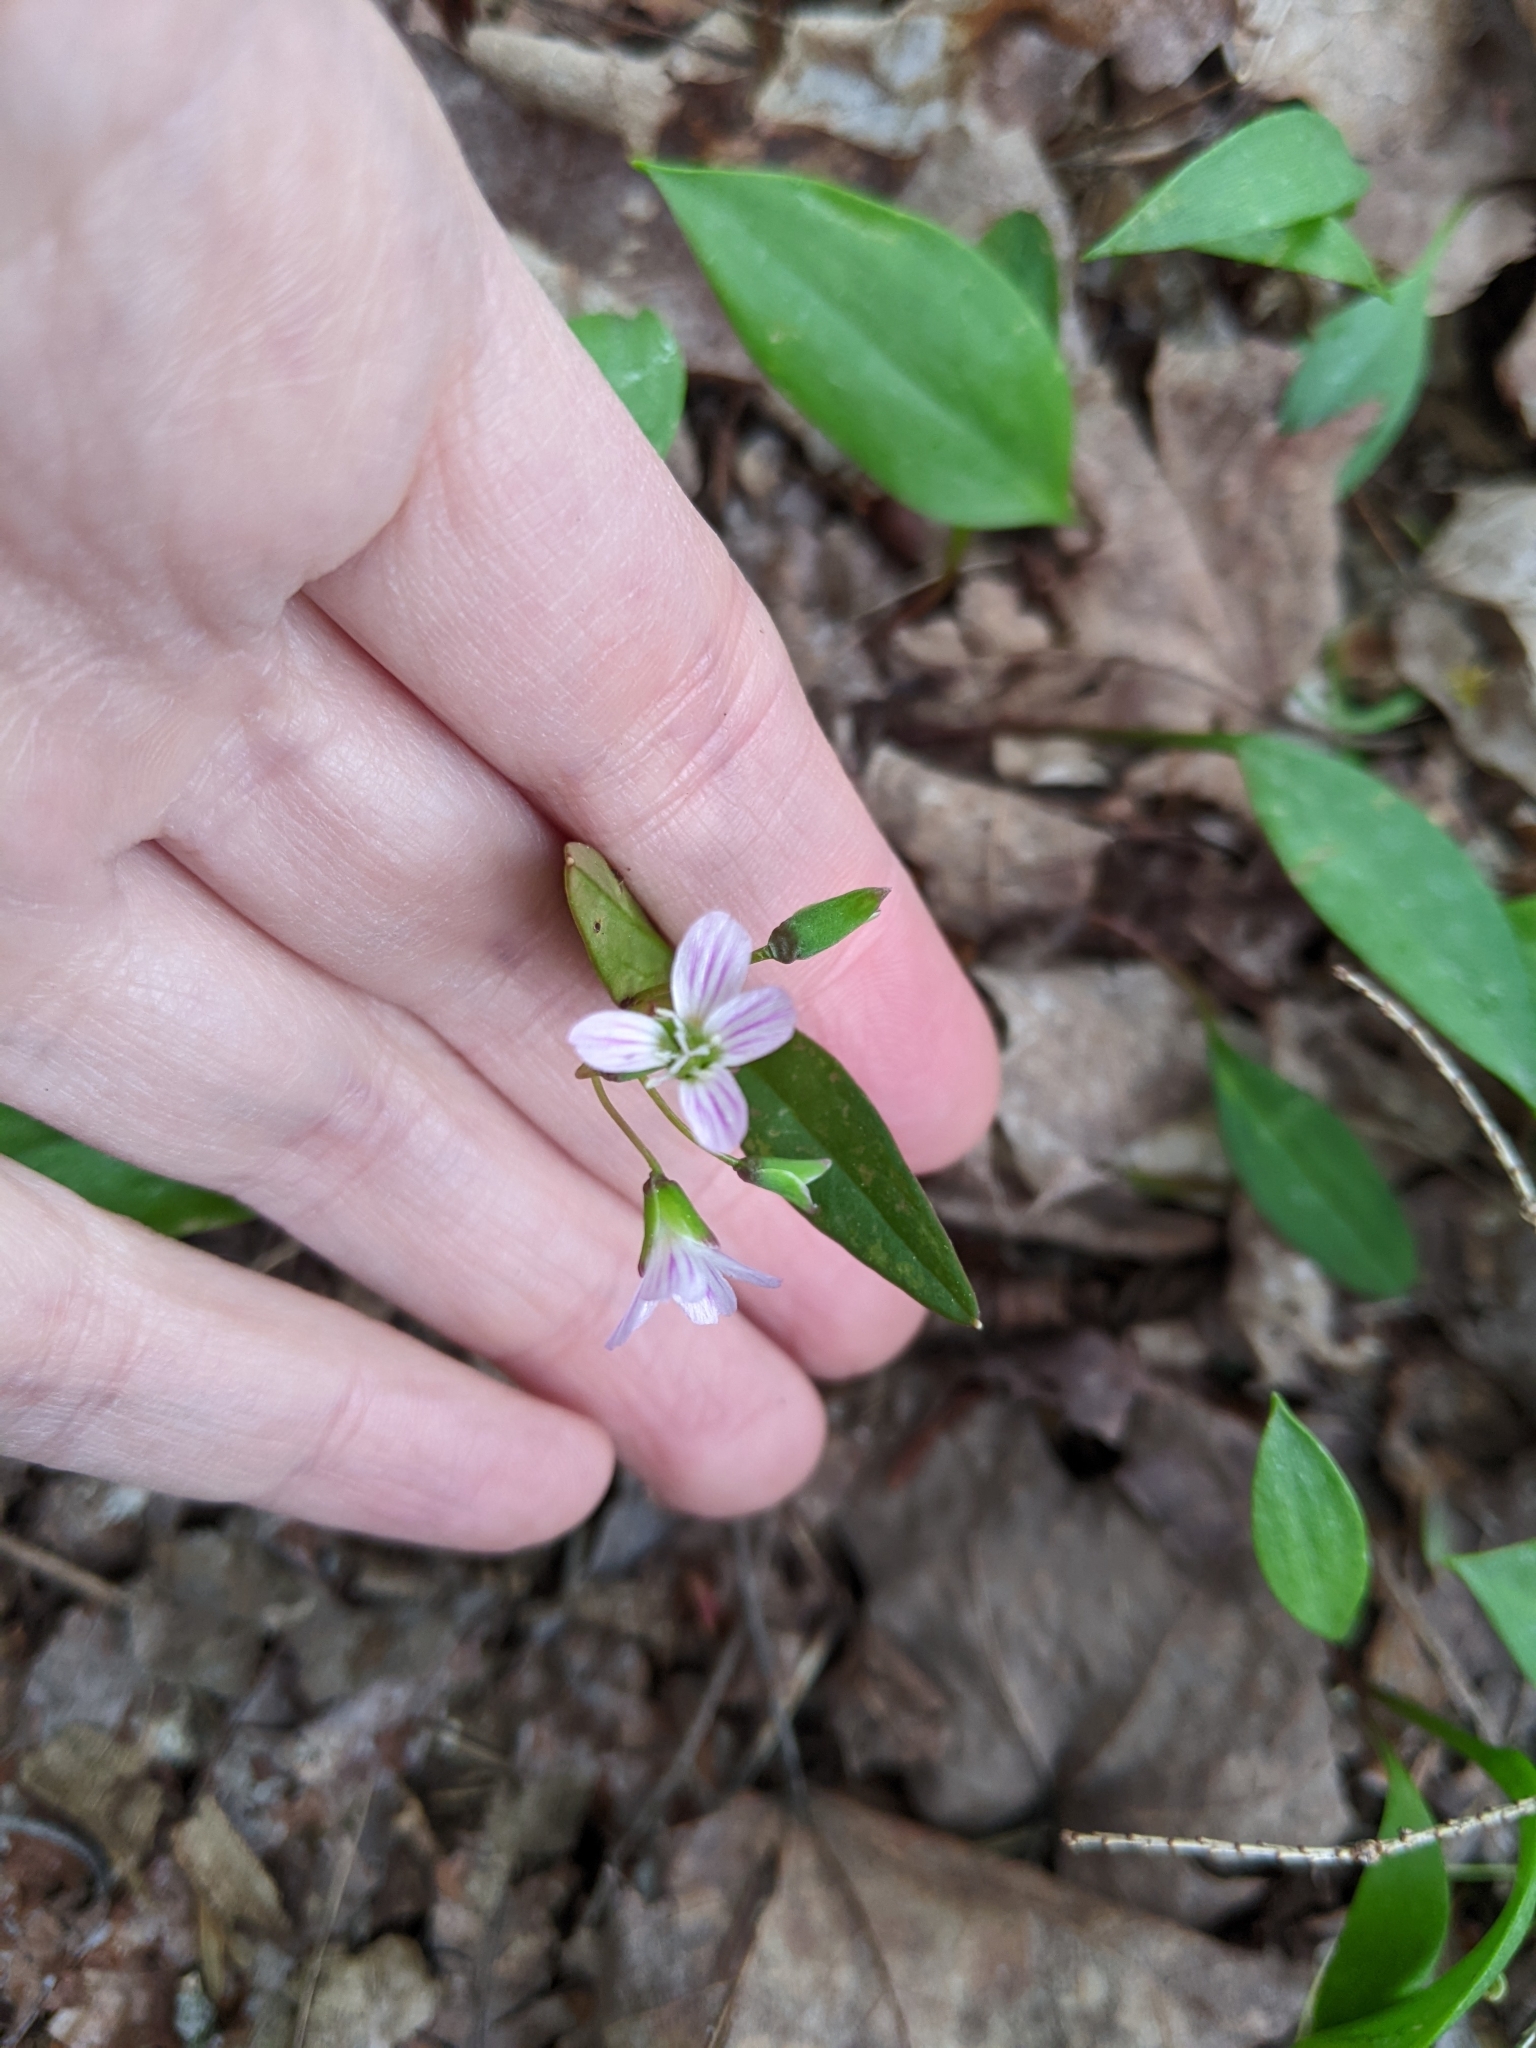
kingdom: Plantae
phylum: Tracheophyta
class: Magnoliopsida
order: Caryophyllales
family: Montiaceae
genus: Claytonia
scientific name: Claytonia caroliniana
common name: Carolina spring beauty
